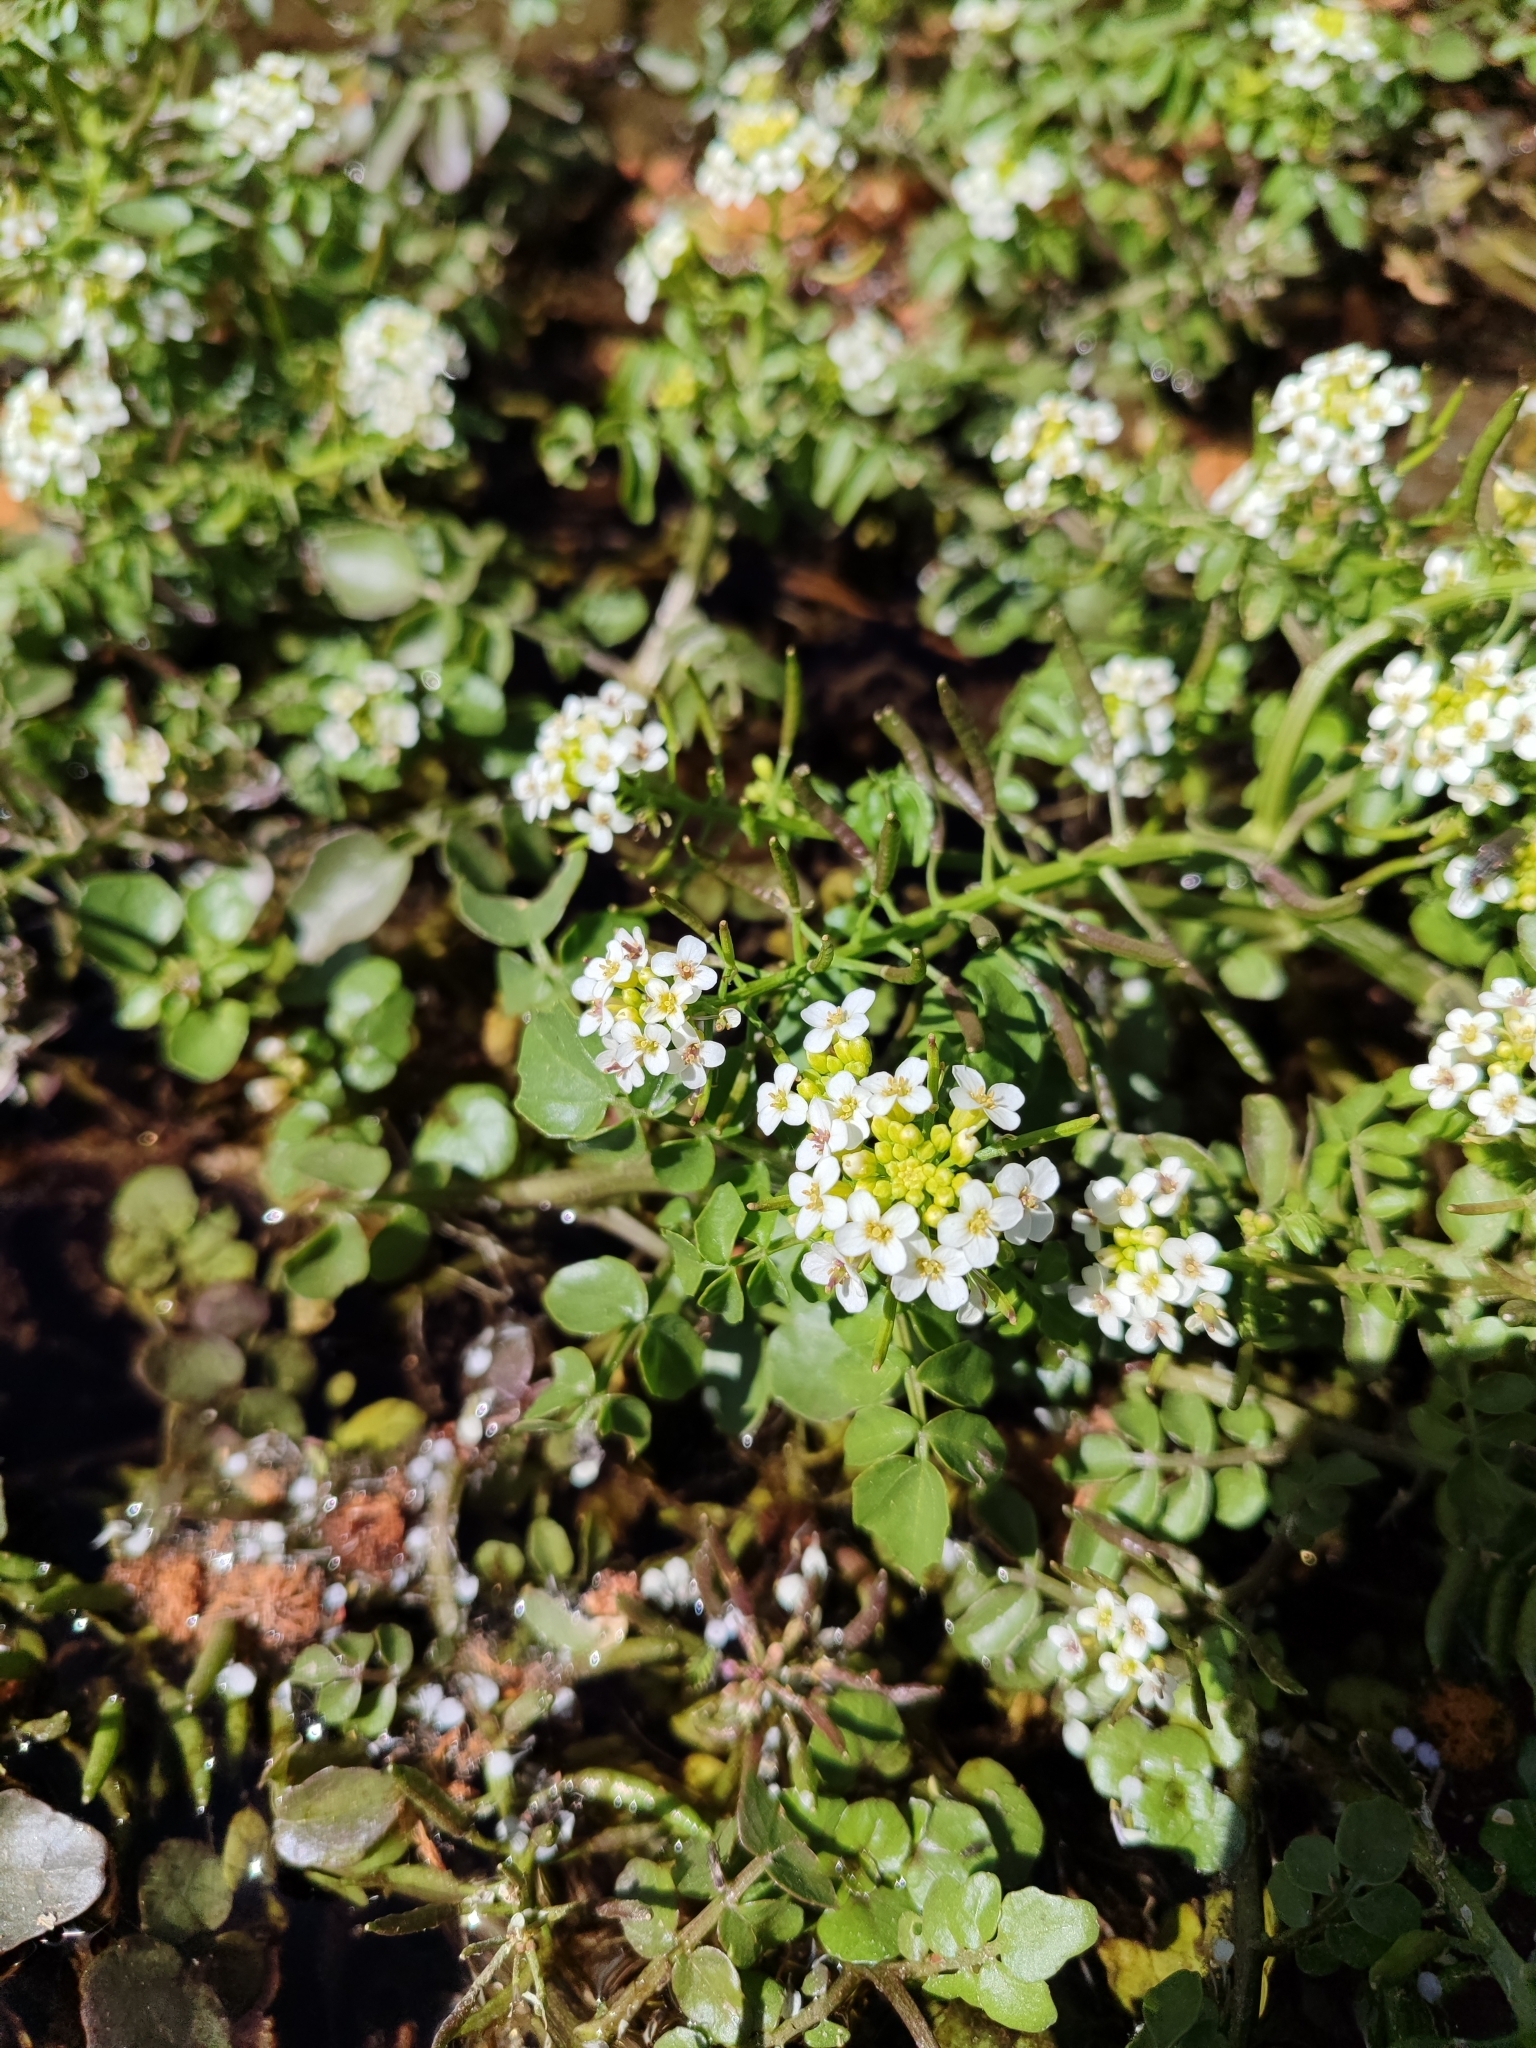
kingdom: Plantae
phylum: Tracheophyta
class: Magnoliopsida
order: Brassicales
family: Brassicaceae
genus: Nasturtium
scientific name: Nasturtium officinale
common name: Watercress
